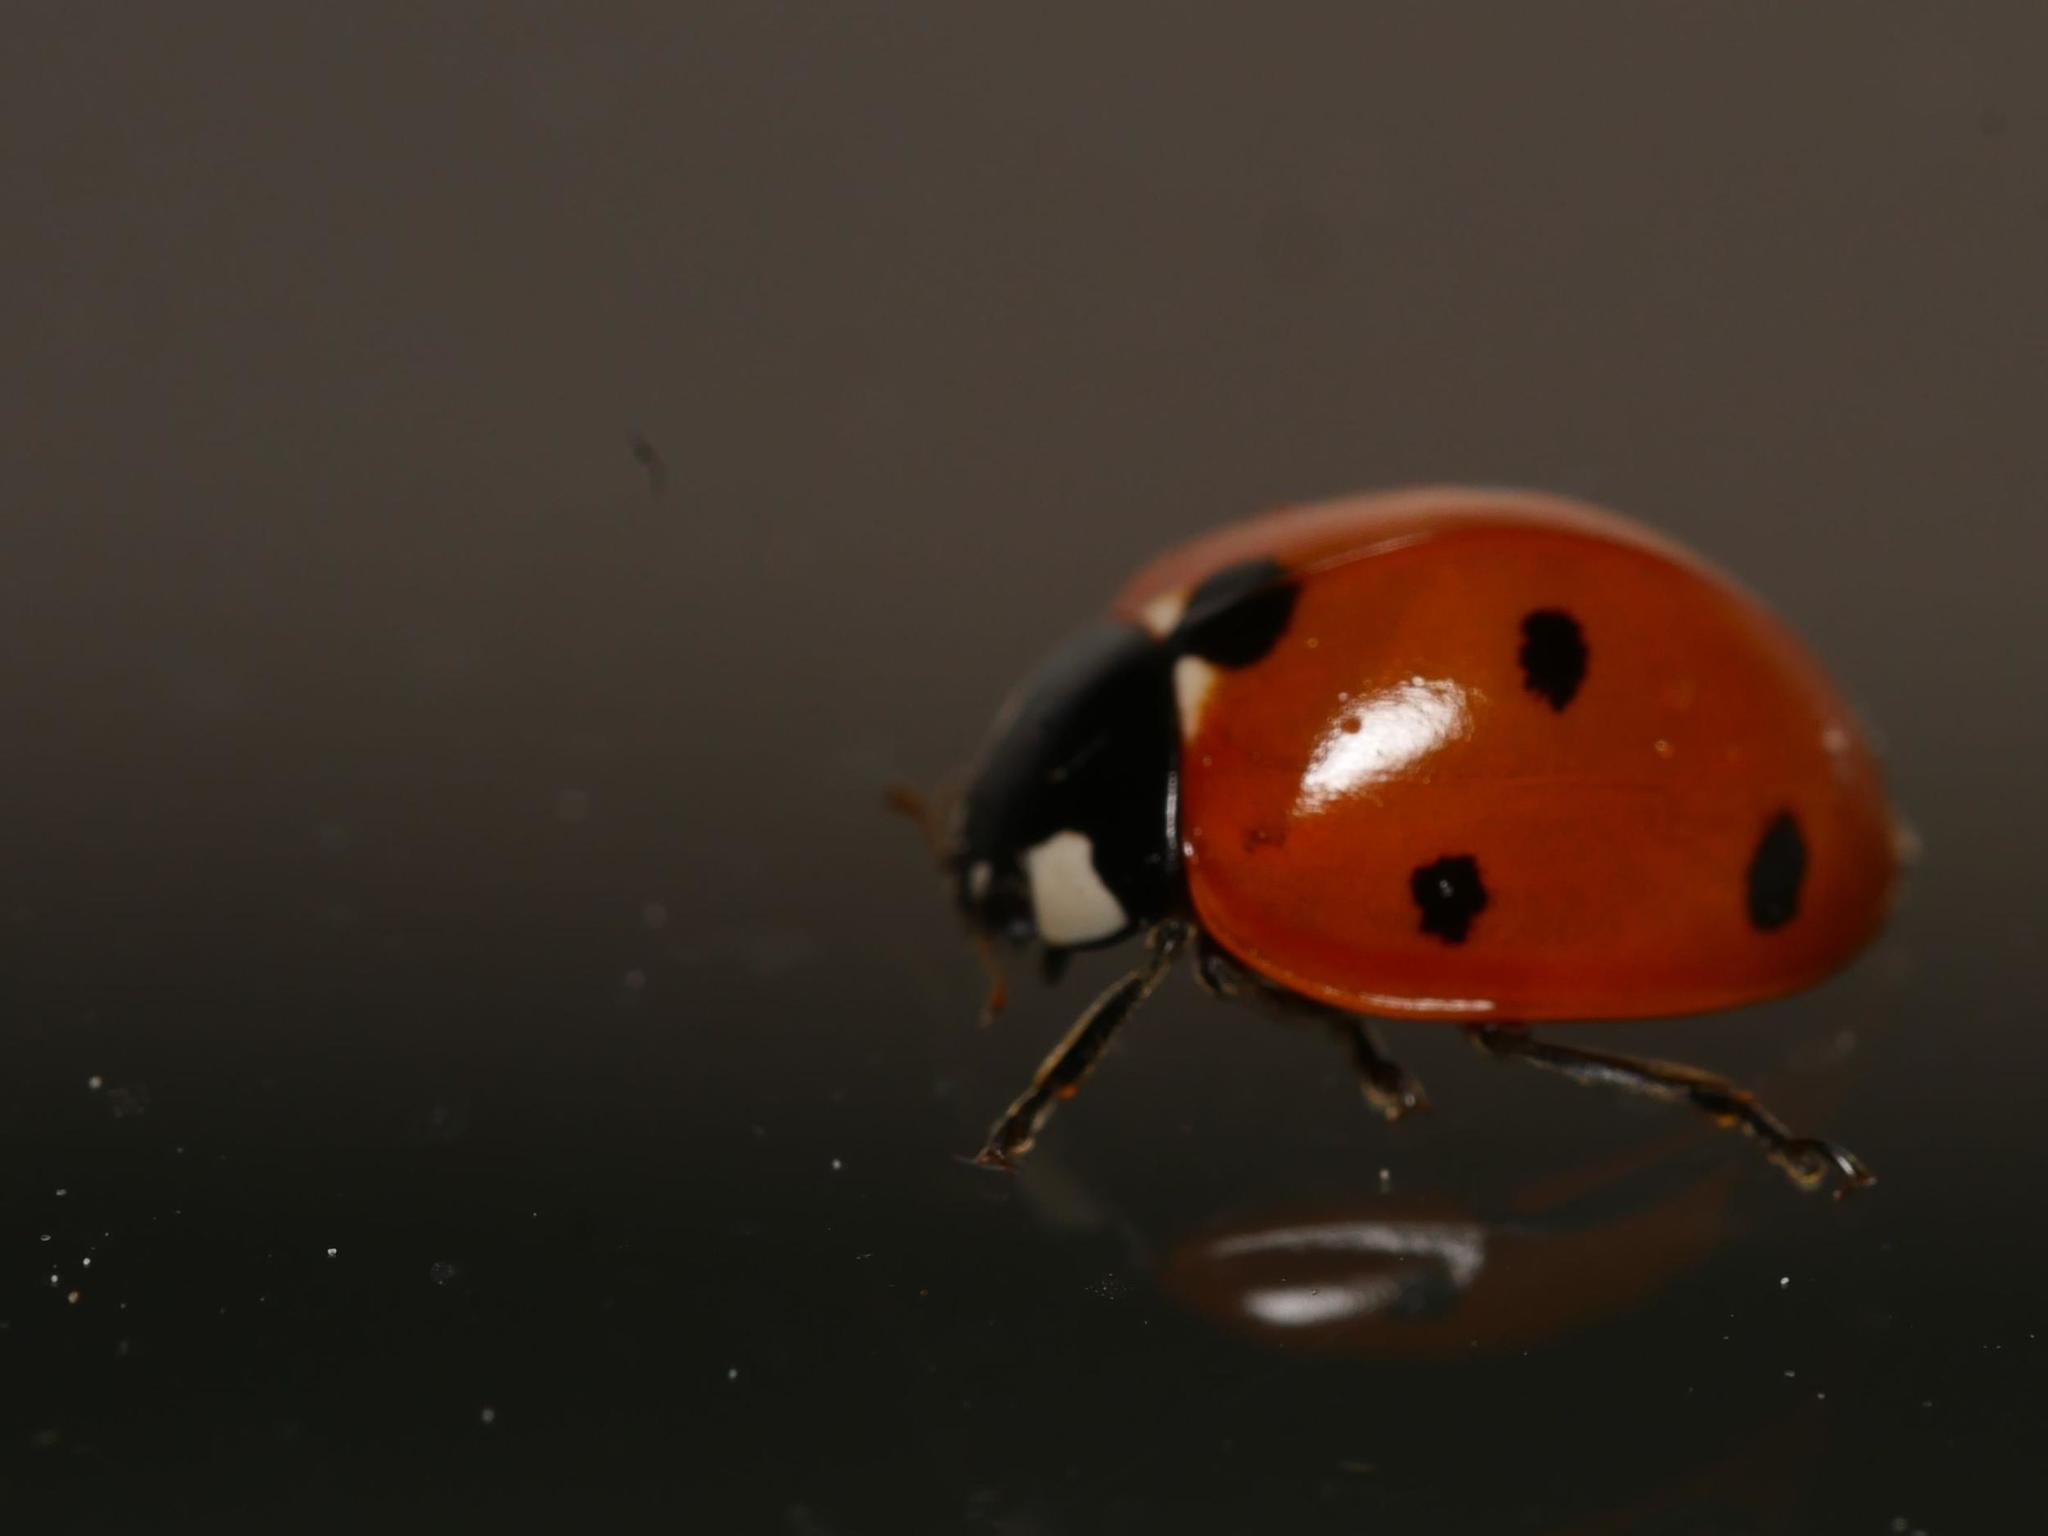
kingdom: Animalia
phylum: Arthropoda
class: Insecta
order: Coleoptera
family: Coccinellidae
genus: Coccinella
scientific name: Coccinella septempunctata
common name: Sevenspotted lady beetle
